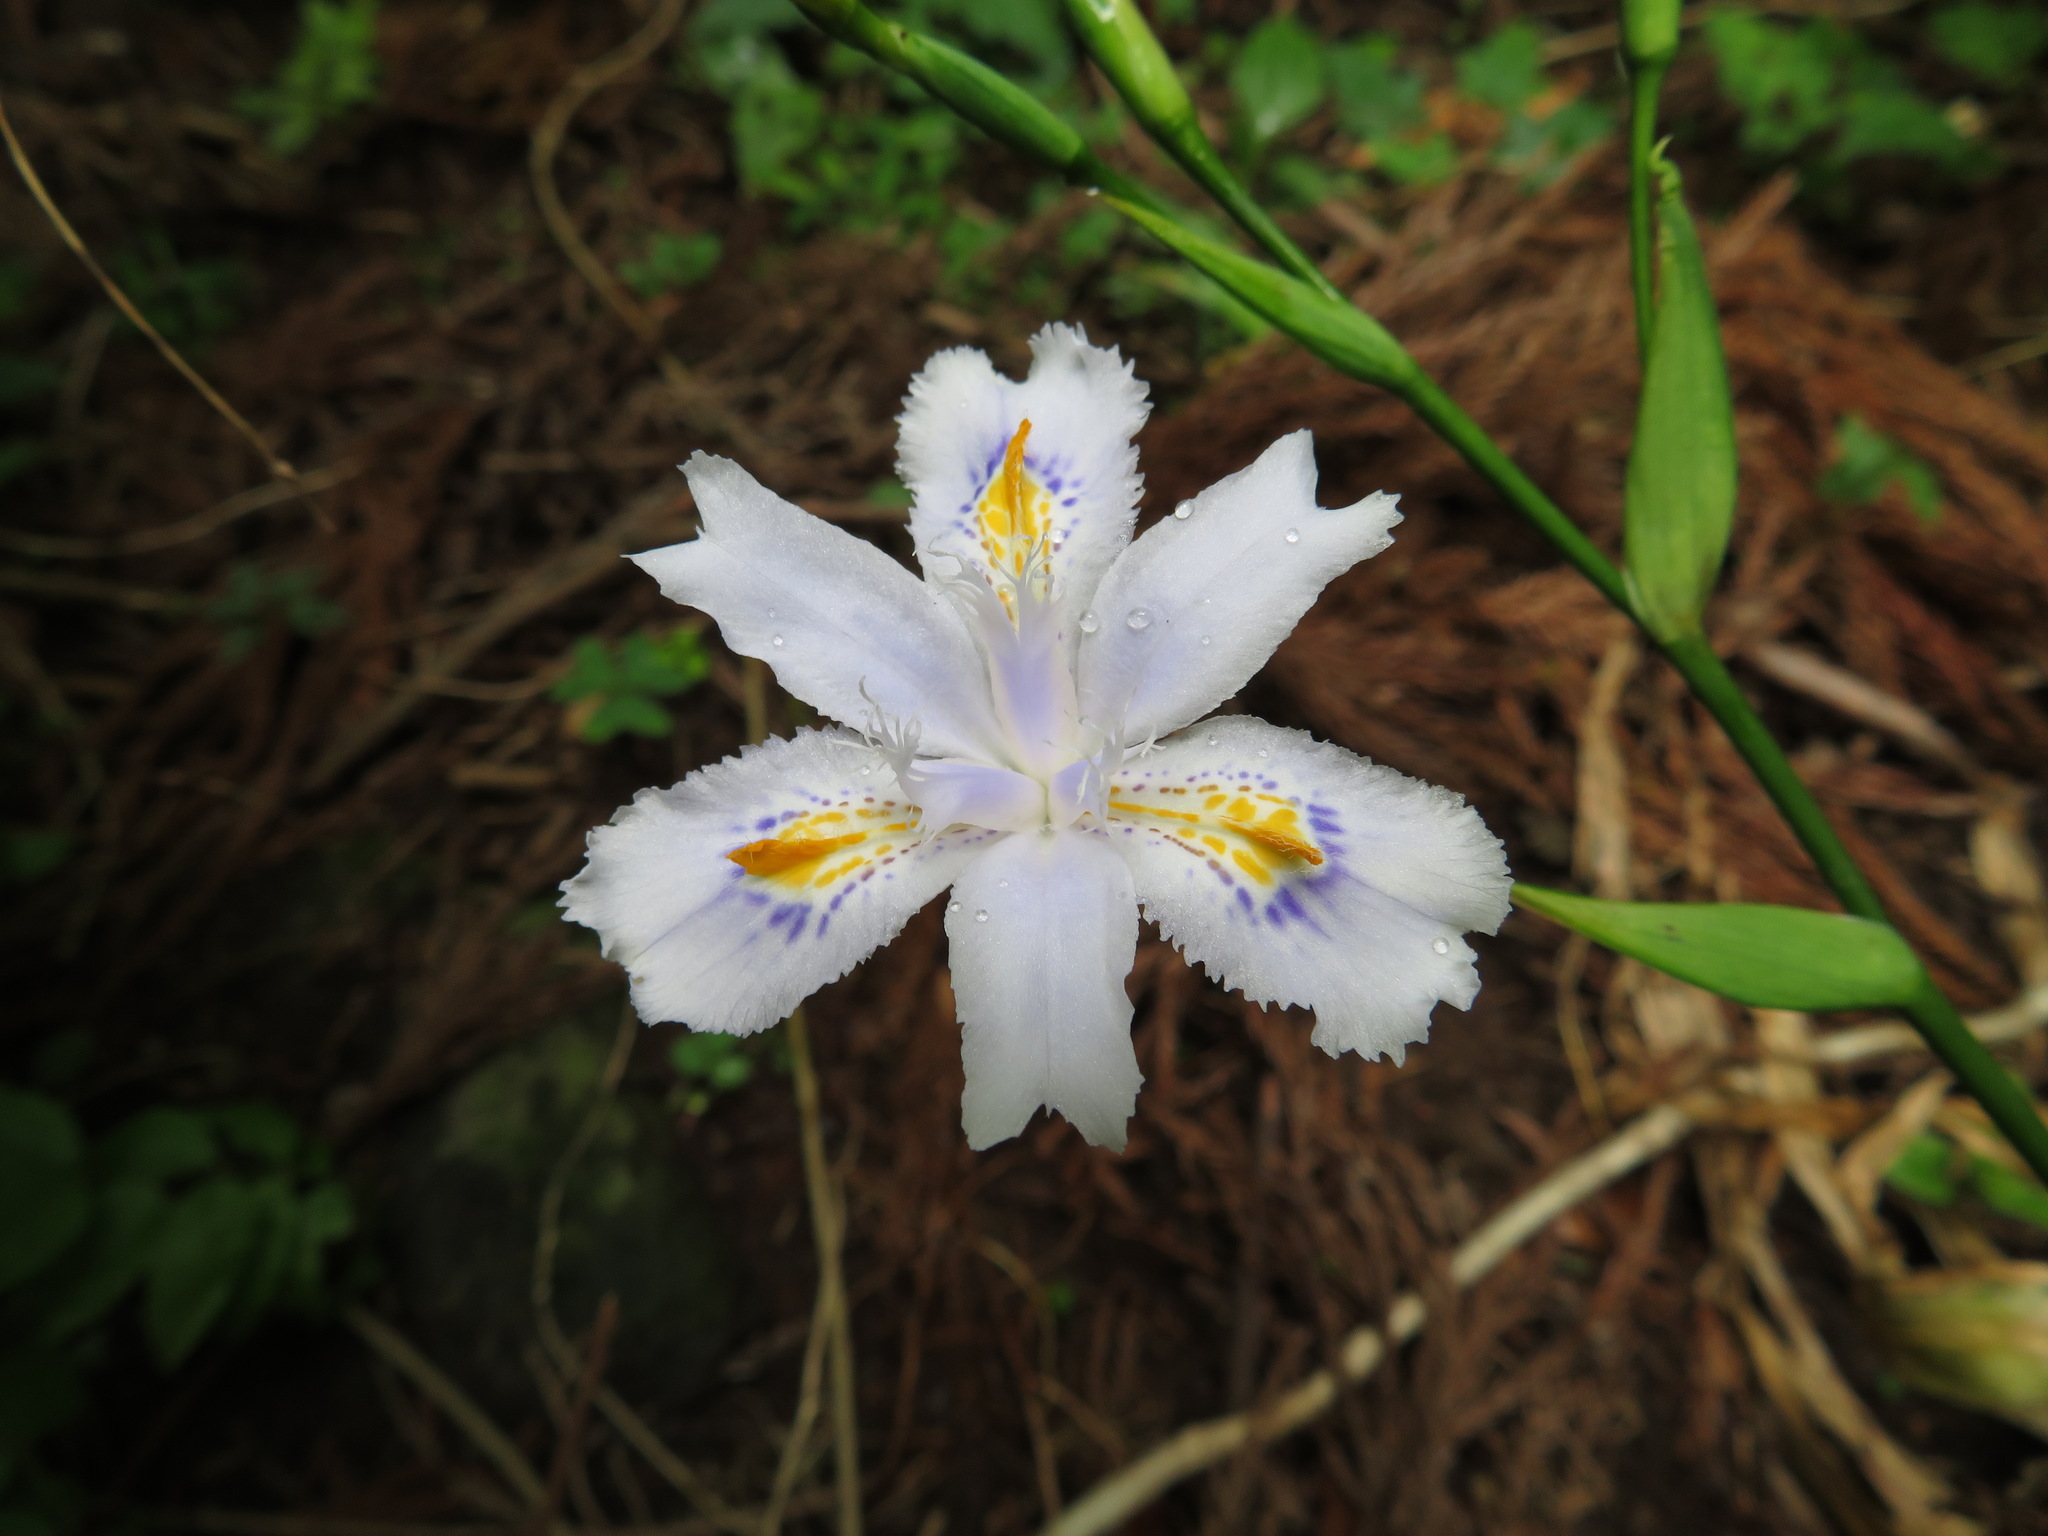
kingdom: Plantae
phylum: Tracheophyta
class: Liliopsida
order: Asparagales
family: Iridaceae
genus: Iris
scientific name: Iris japonica
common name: Butterfly-flower
